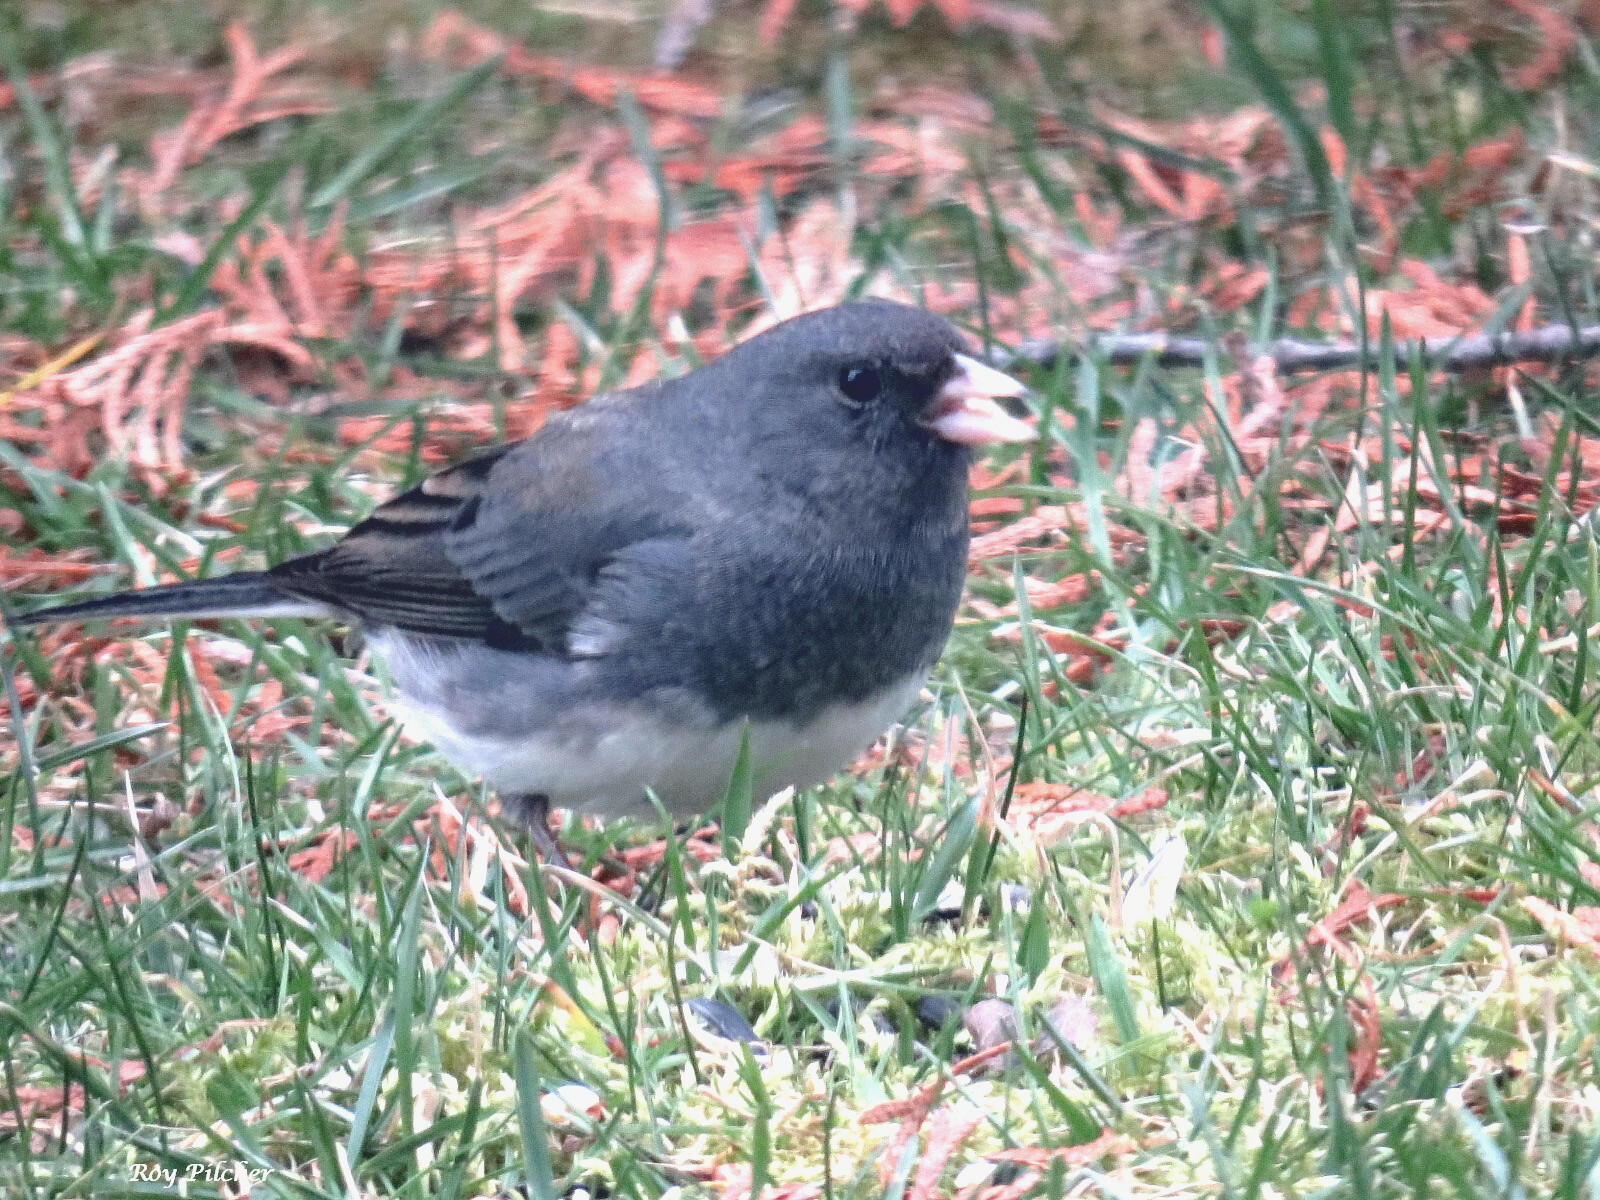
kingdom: Animalia
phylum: Chordata
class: Aves
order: Passeriformes
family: Passerellidae
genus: Junco
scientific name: Junco hyemalis
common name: Dark-eyed junco
